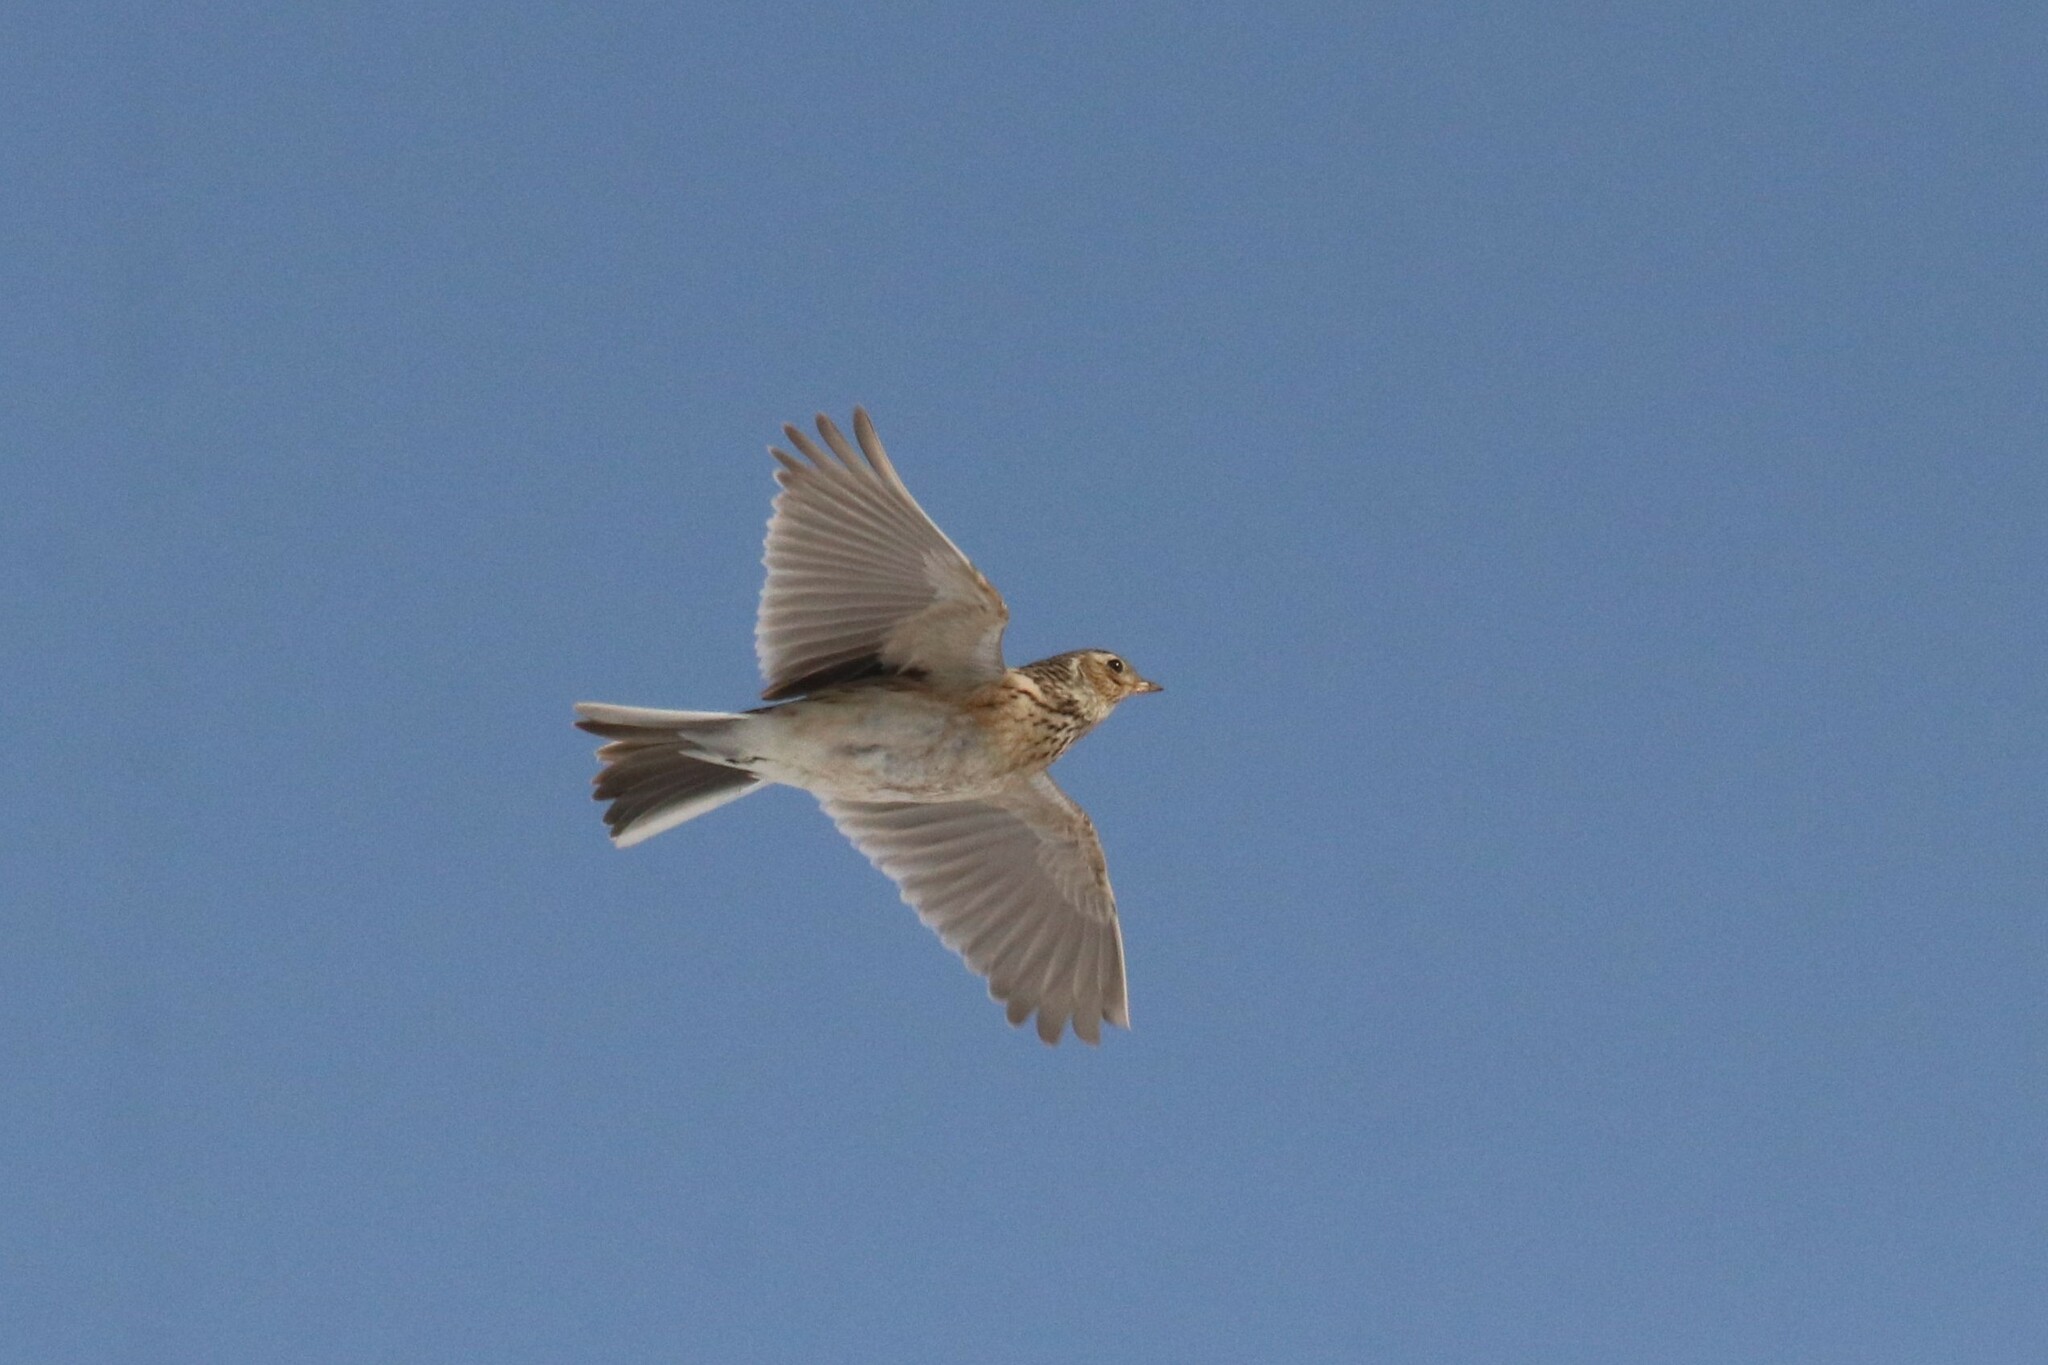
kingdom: Animalia
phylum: Chordata
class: Aves
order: Passeriformes
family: Alaudidae
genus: Alauda
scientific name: Alauda arvensis
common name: Eurasian skylark
